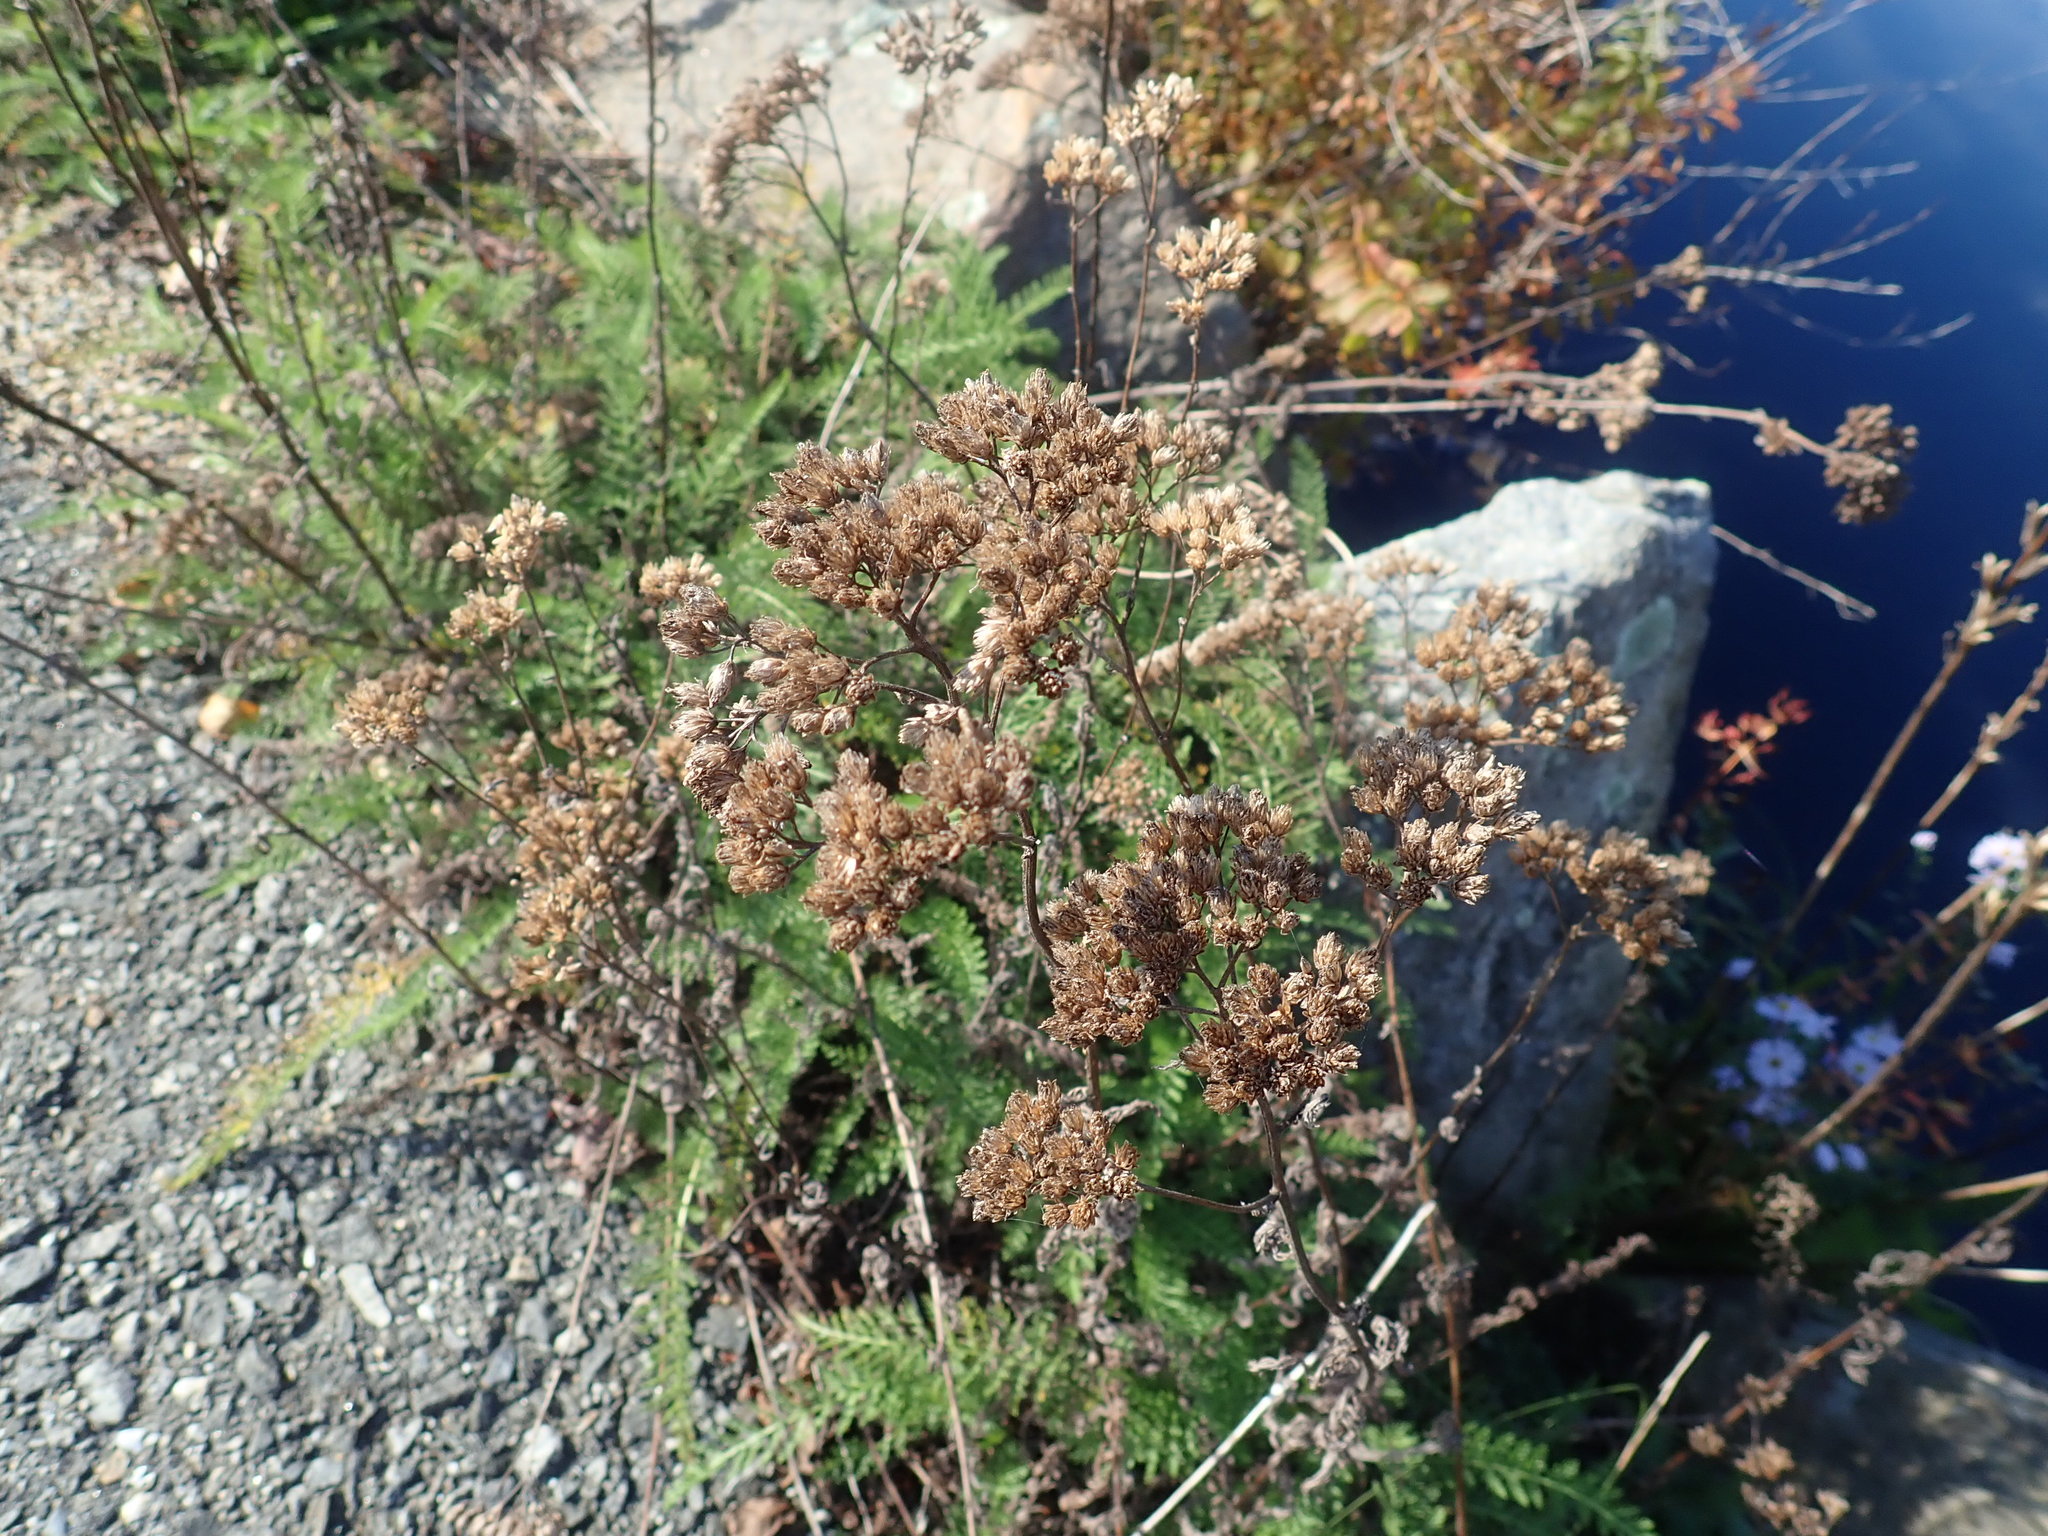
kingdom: Plantae
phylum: Tracheophyta
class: Magnoliopsida
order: Asterales
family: Asteraceae
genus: Achillea
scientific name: Achillea millefolium
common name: Yarrow
